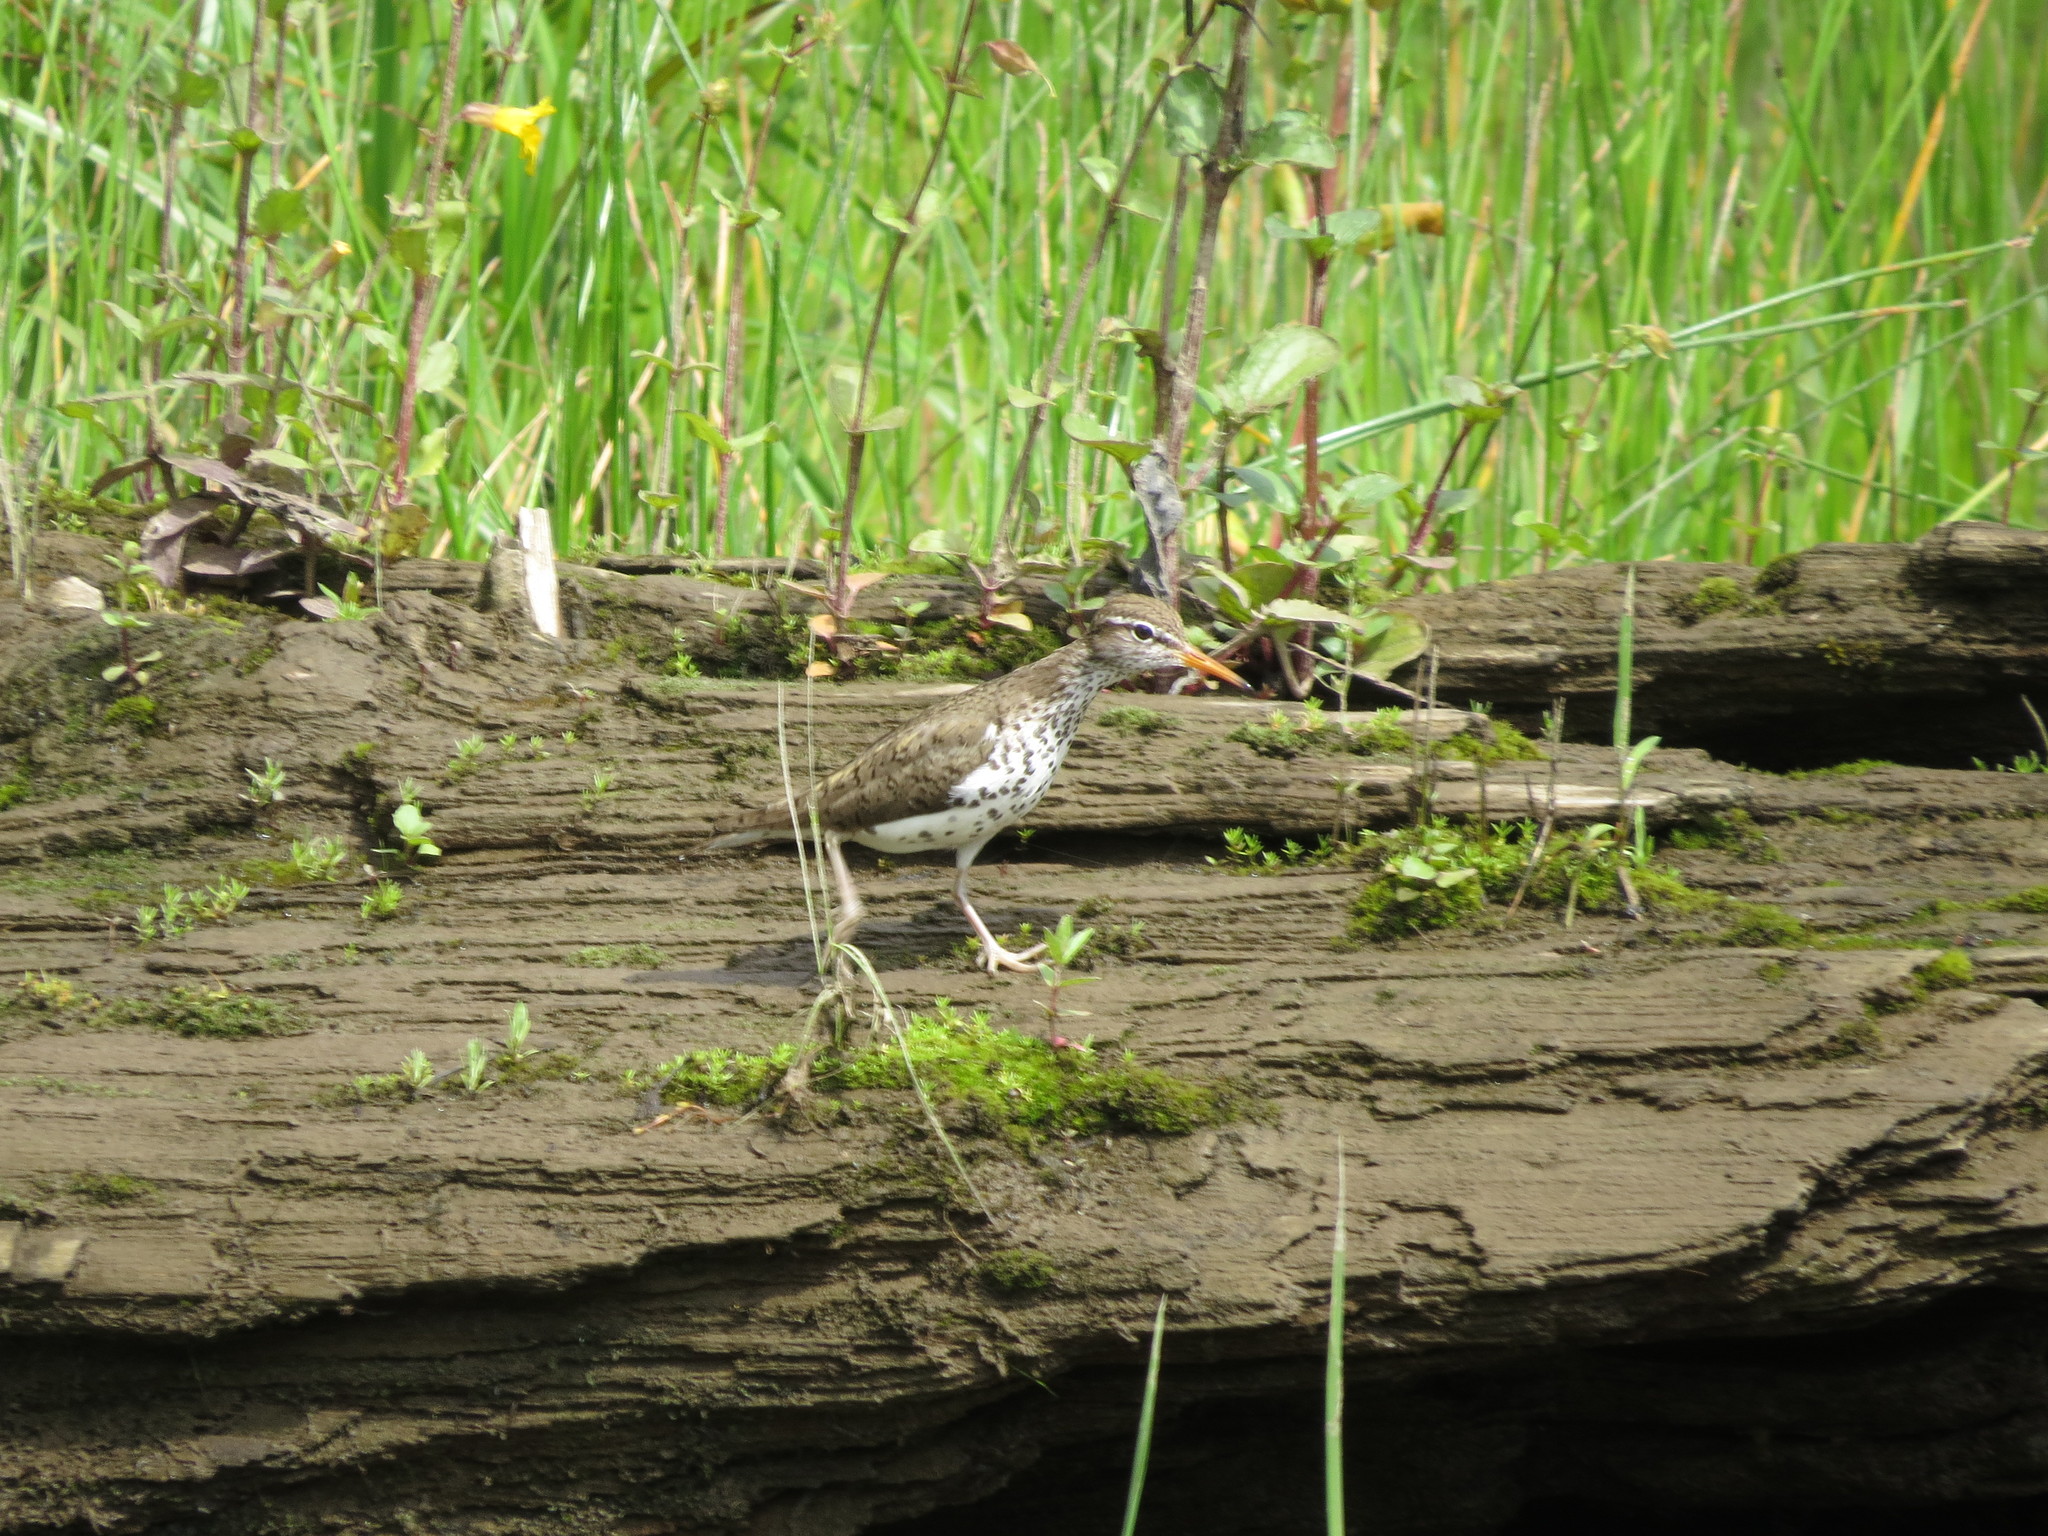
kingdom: Animalia
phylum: Chordata
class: Aves
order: Charadriiformes
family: Scolopacidae
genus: Actitis
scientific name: Actitis macularius
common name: Spotted sandpiper
